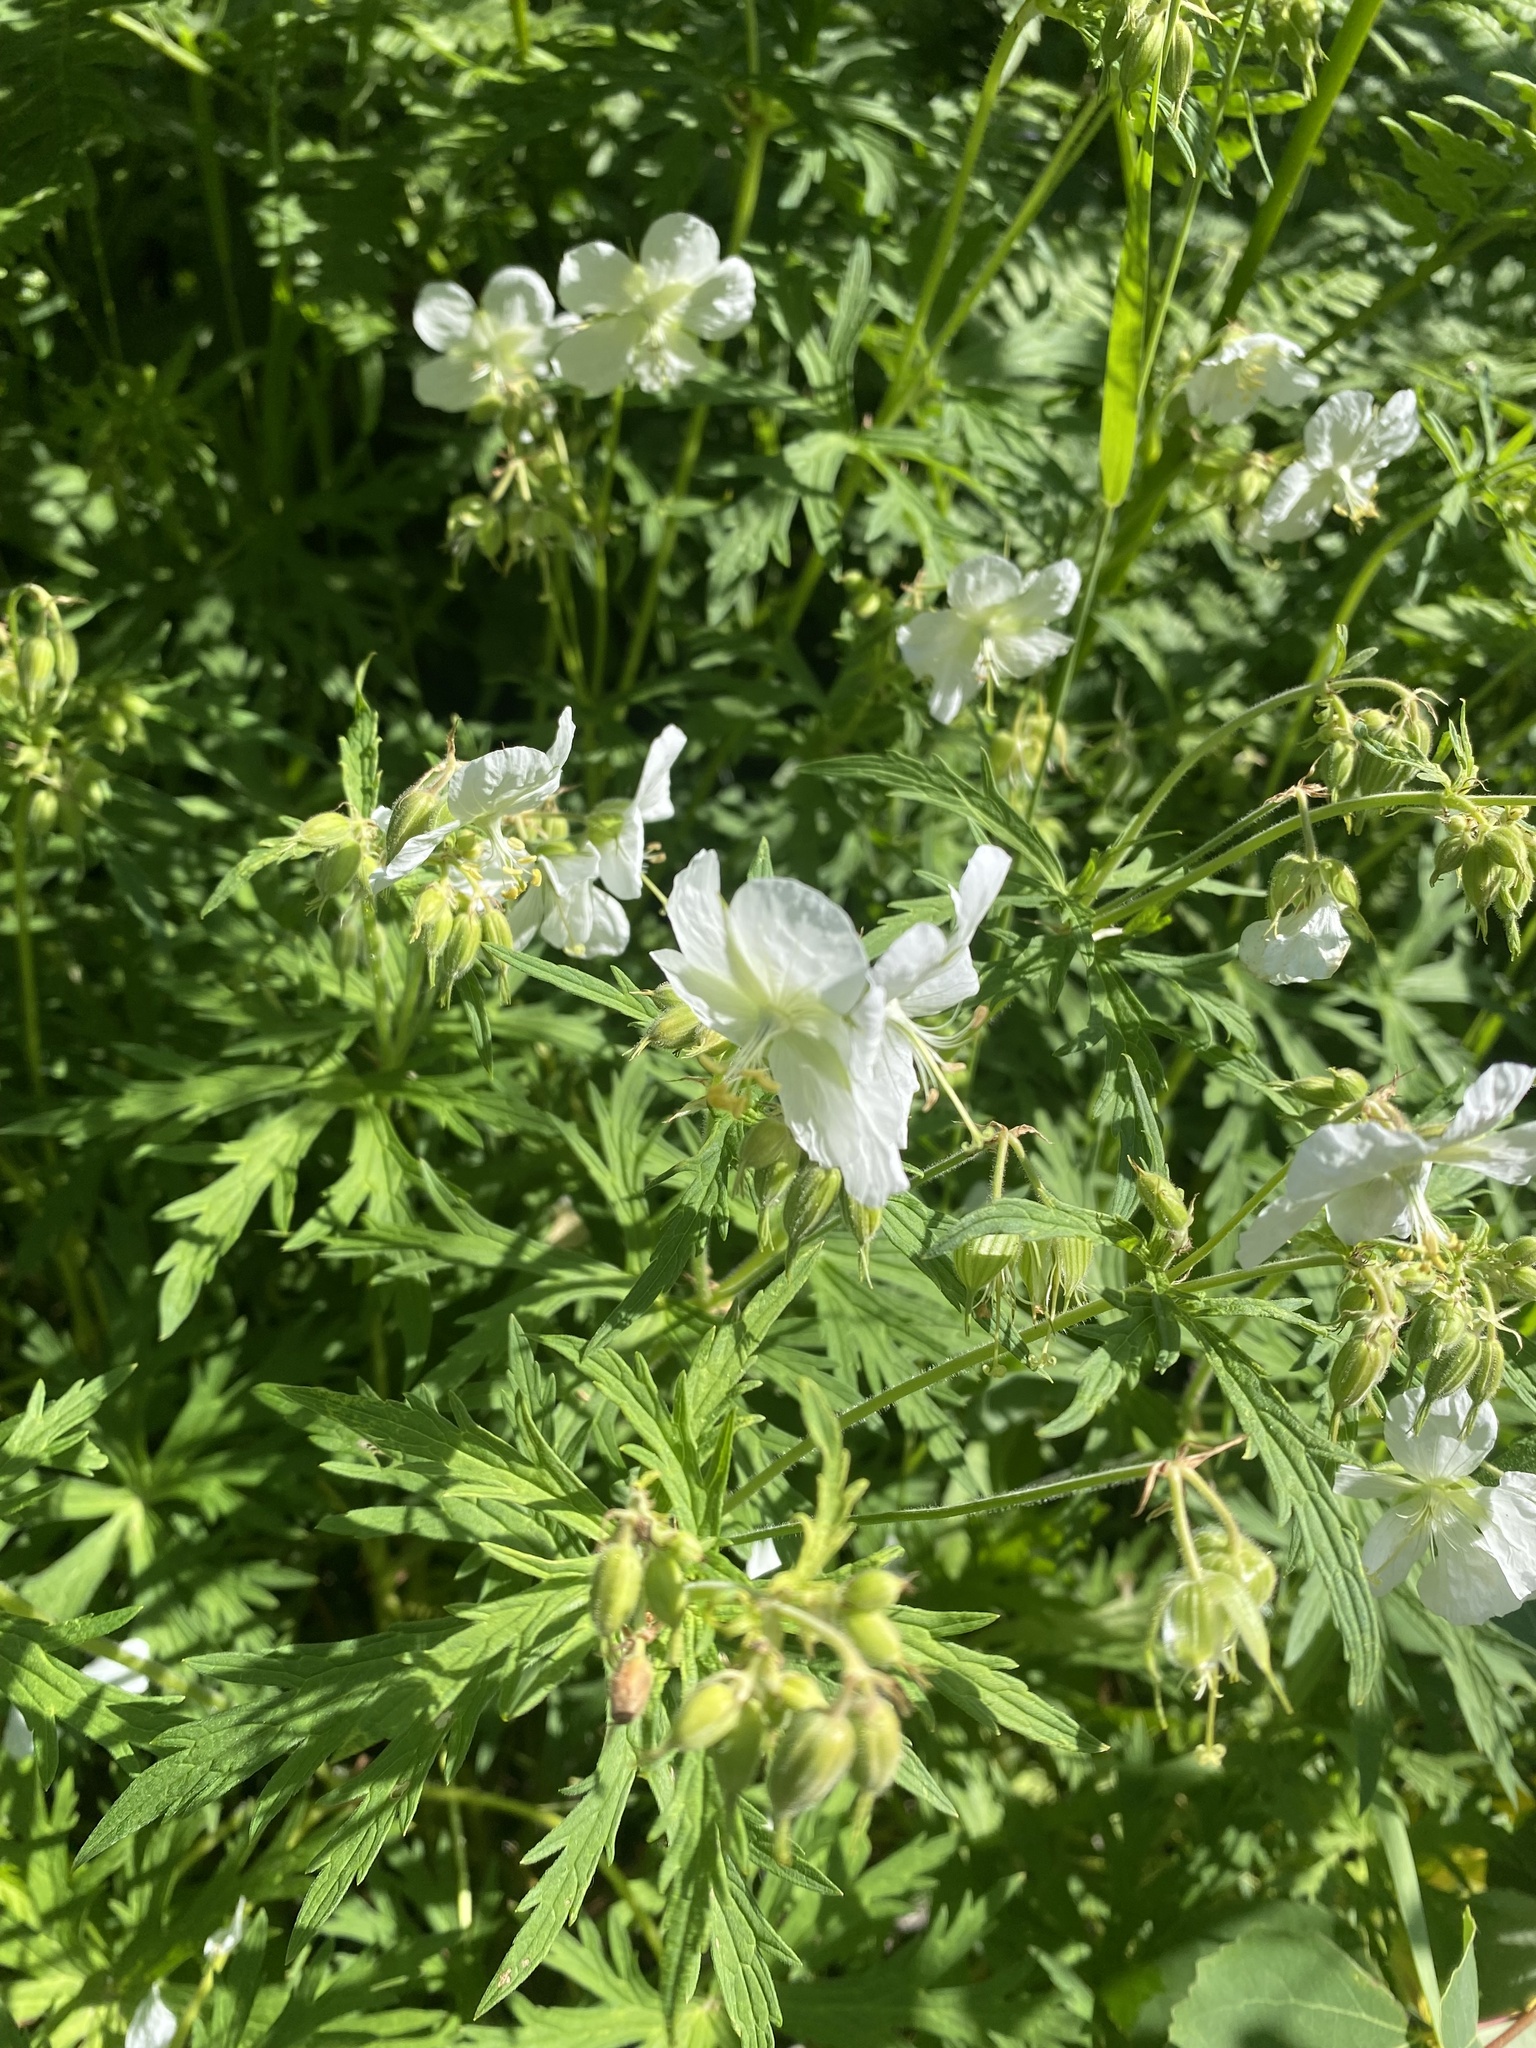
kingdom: Plantae
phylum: Tracheophyta
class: Magnoliopsida
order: Geraniales
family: Geraniaceae
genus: Geranium
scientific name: Geranium pratense
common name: Meadow crane's-bill
